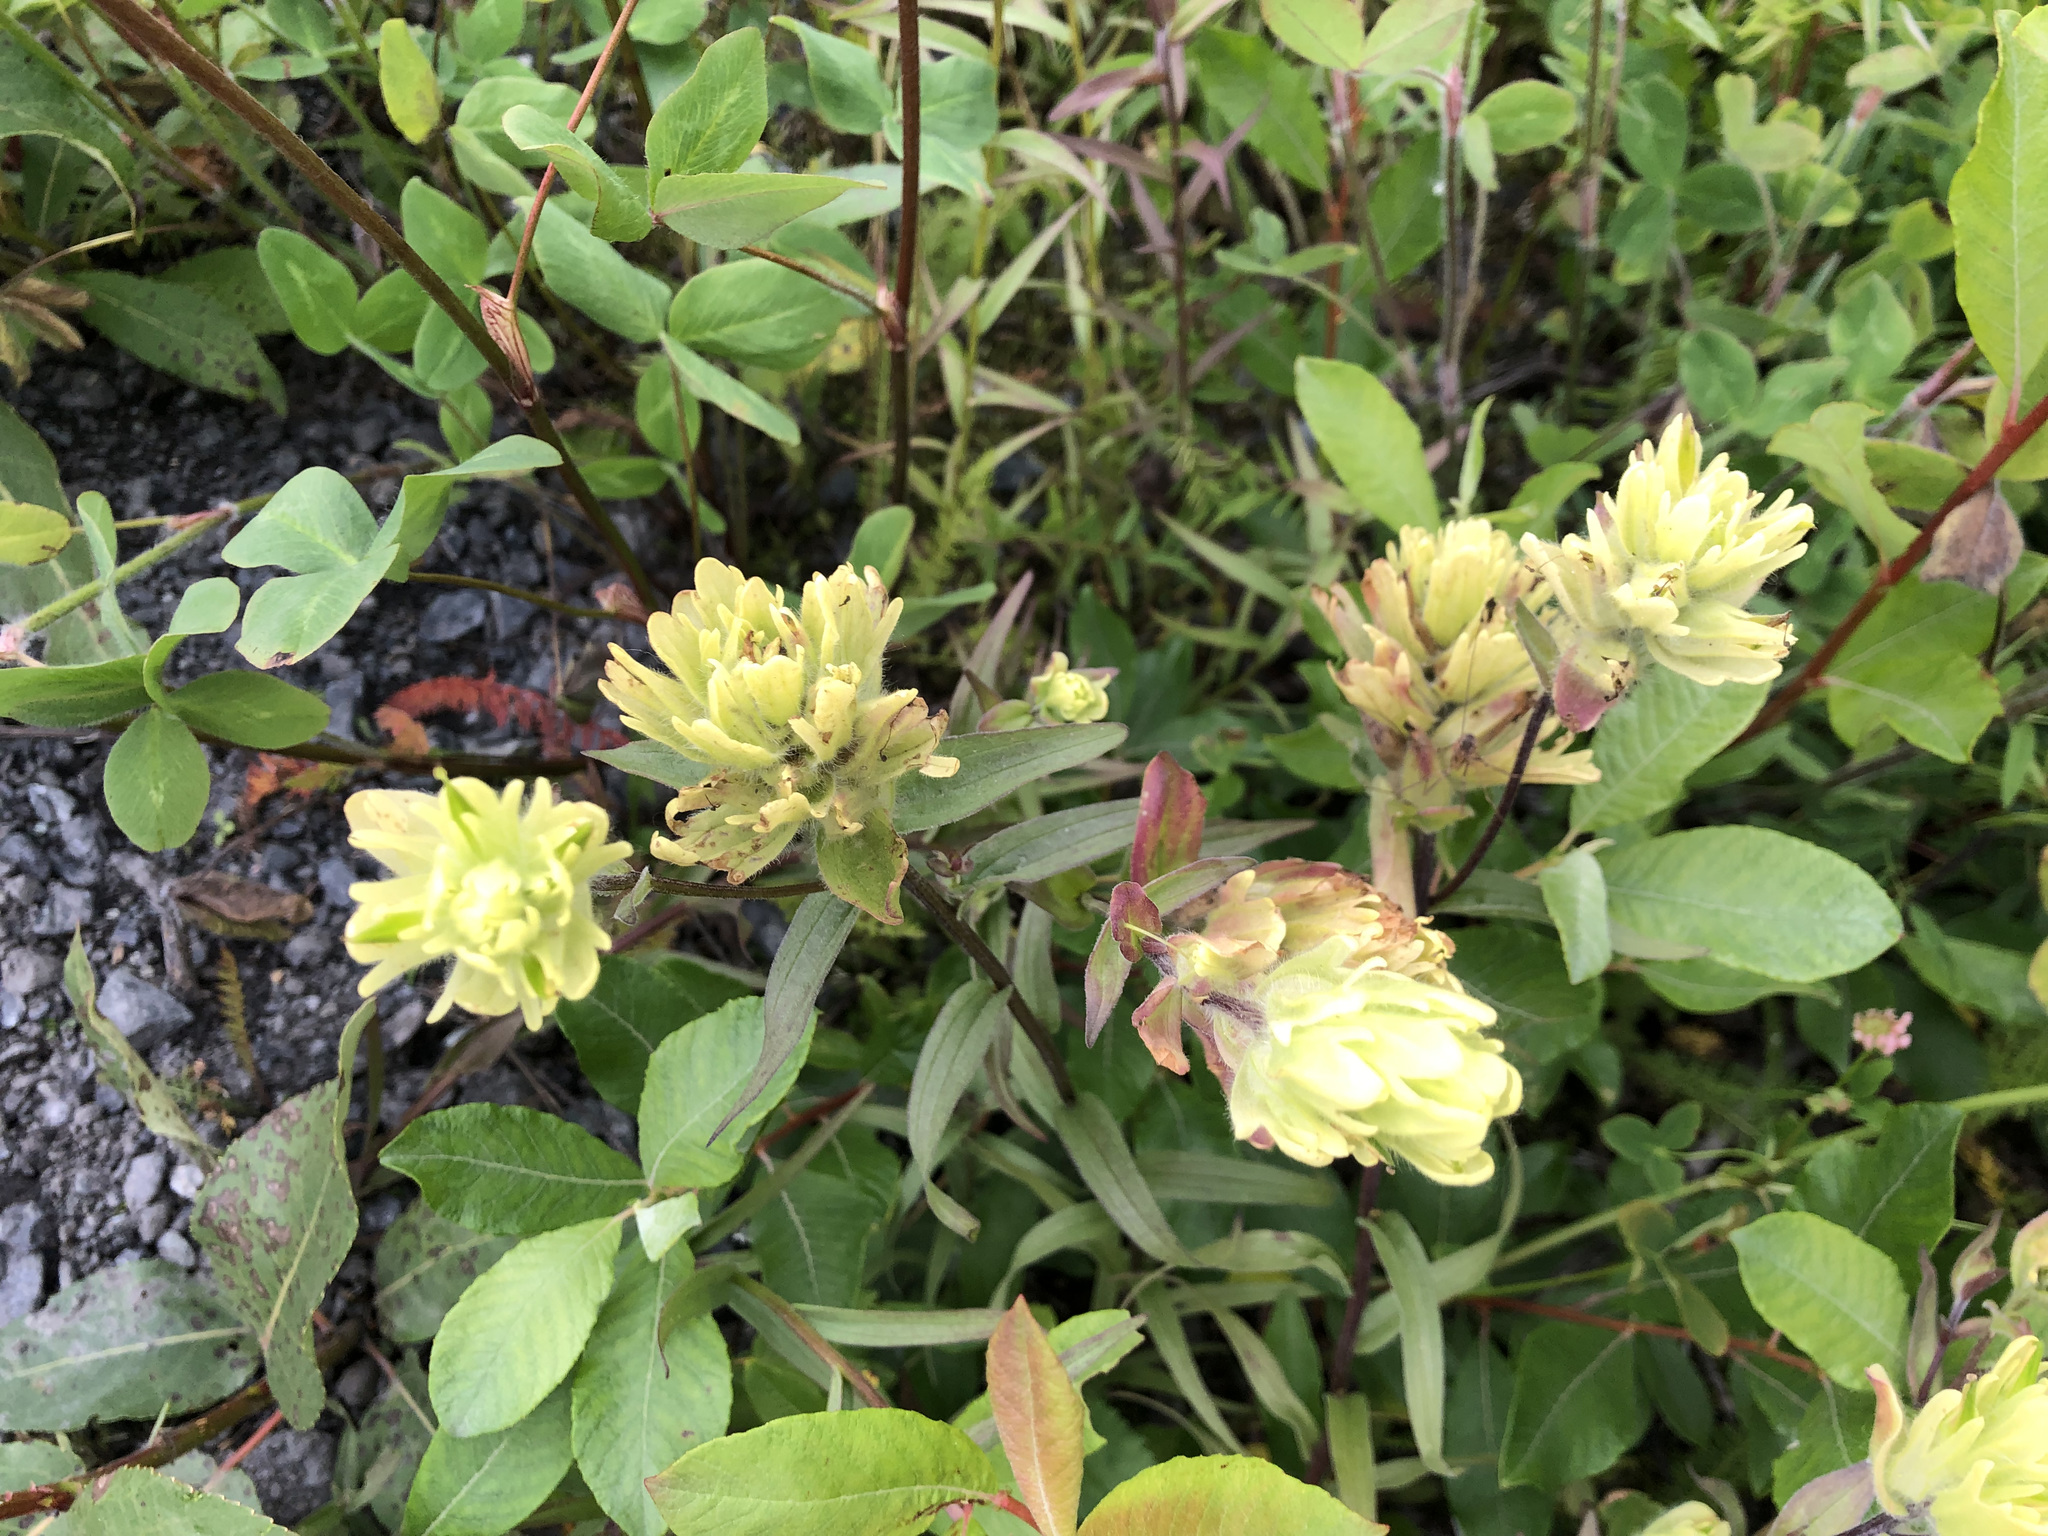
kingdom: Plantae
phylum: Tracheophyta
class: Magnoliopsida
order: Lamiales
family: Orobanchaceae
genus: Castilleja
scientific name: Castilleja unalaschcensis
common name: Unalaska paintbrush
